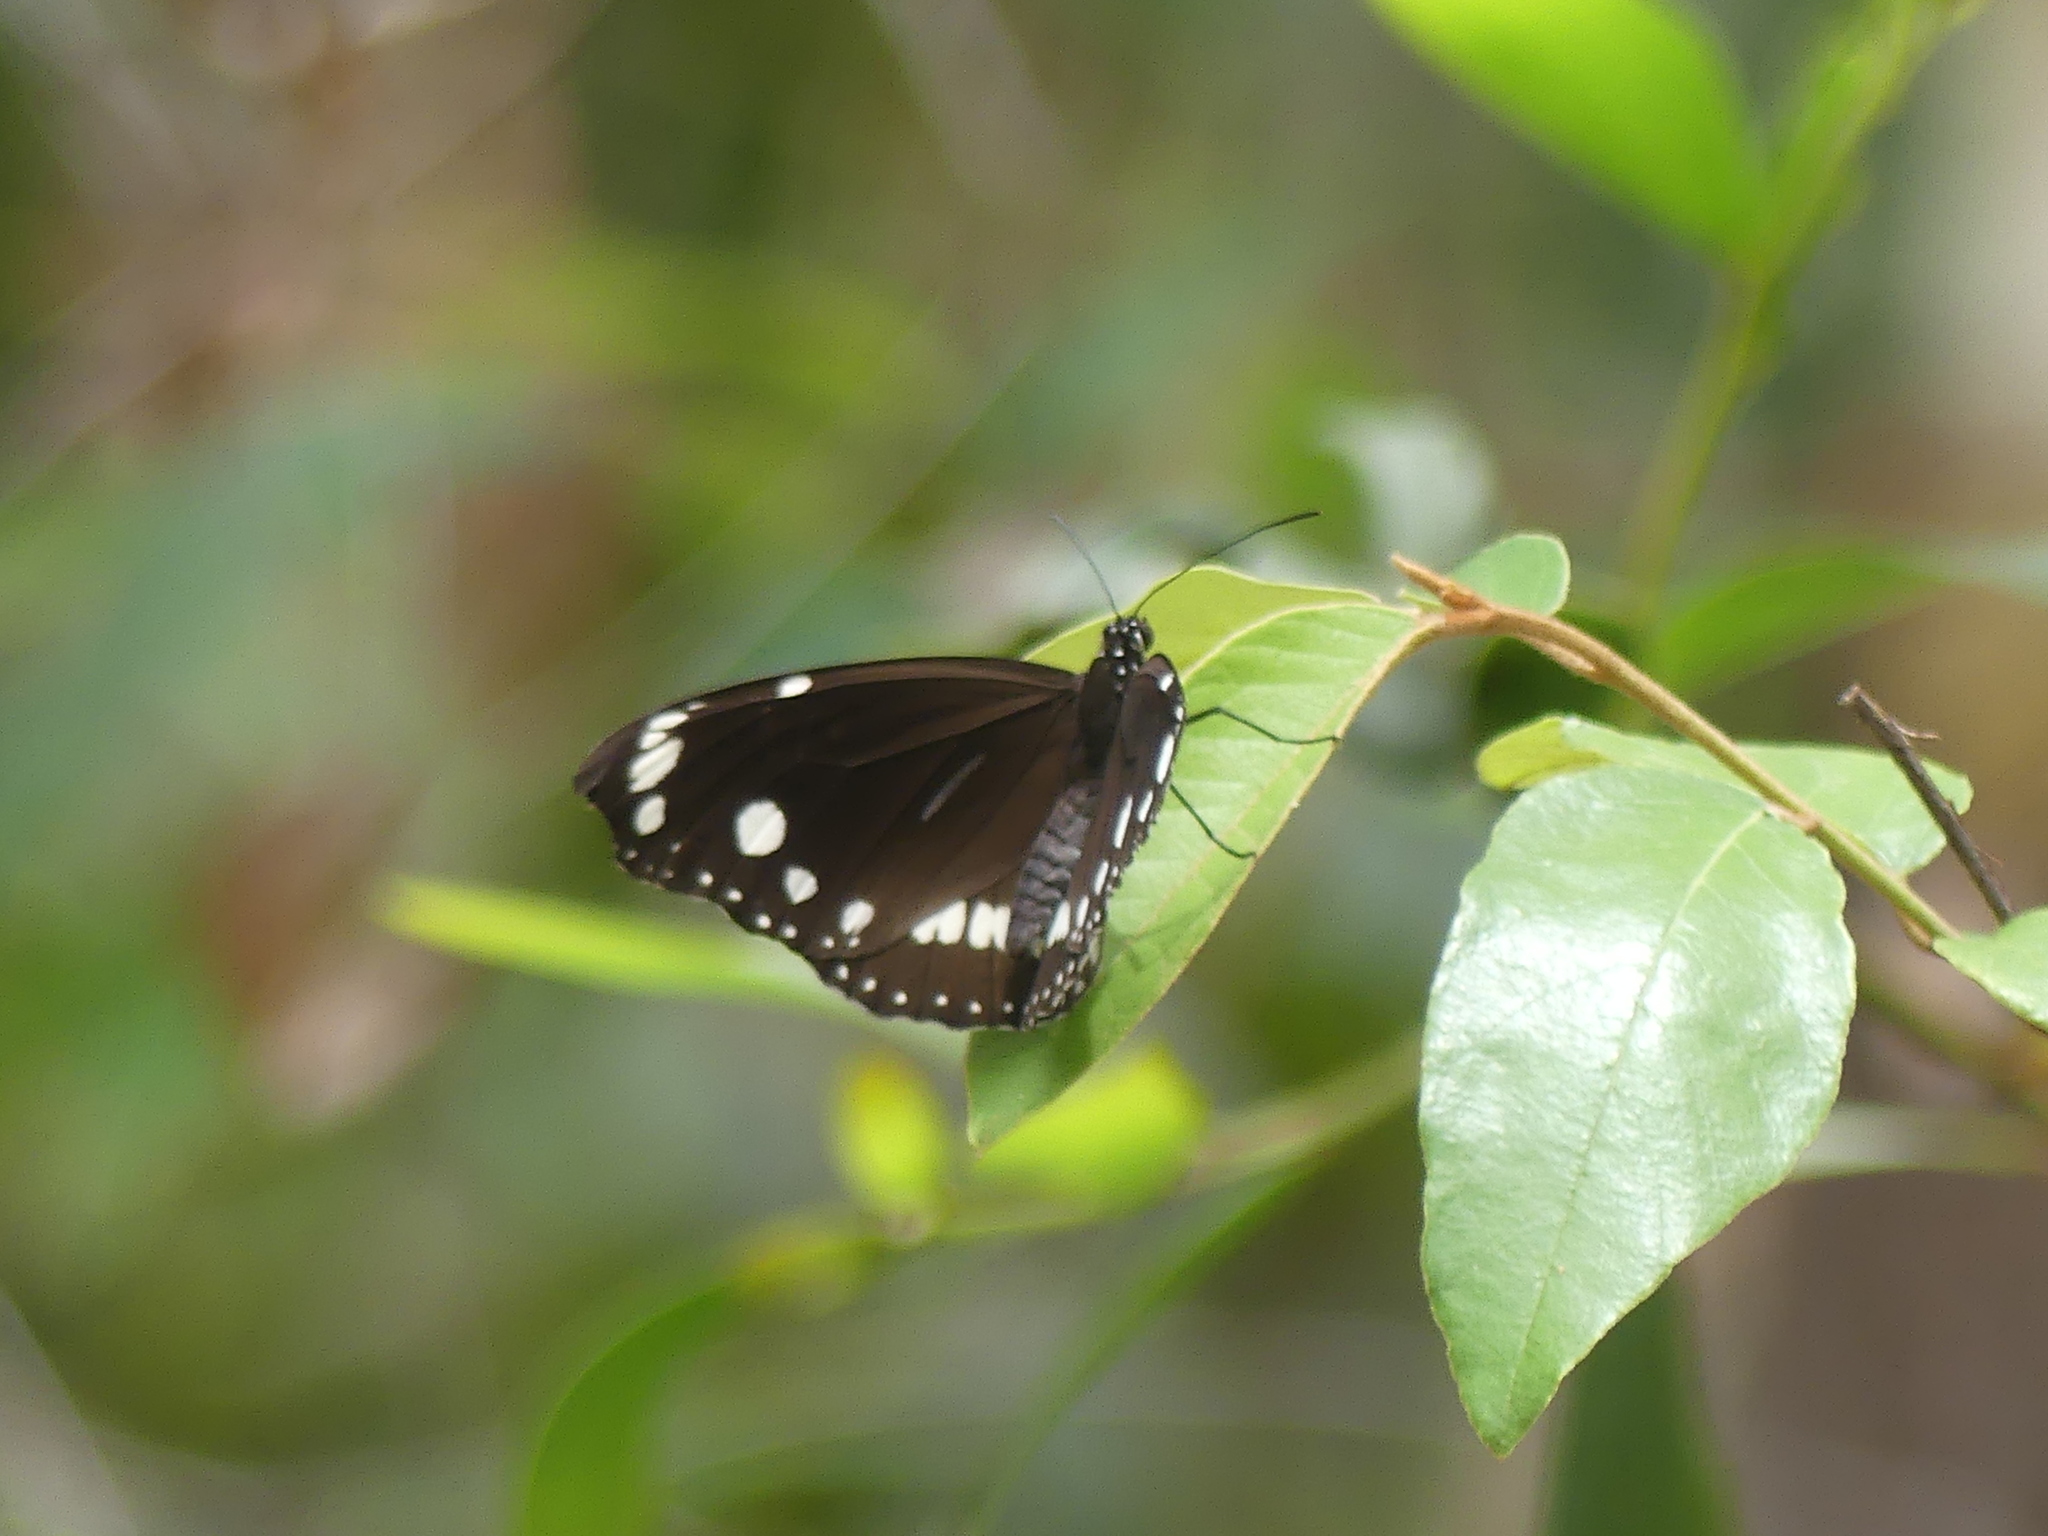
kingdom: Animalia
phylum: Arthropoda
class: Insecta
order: Lepidoptera
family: Nymphalidae
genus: Euploea
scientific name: Euploea core
